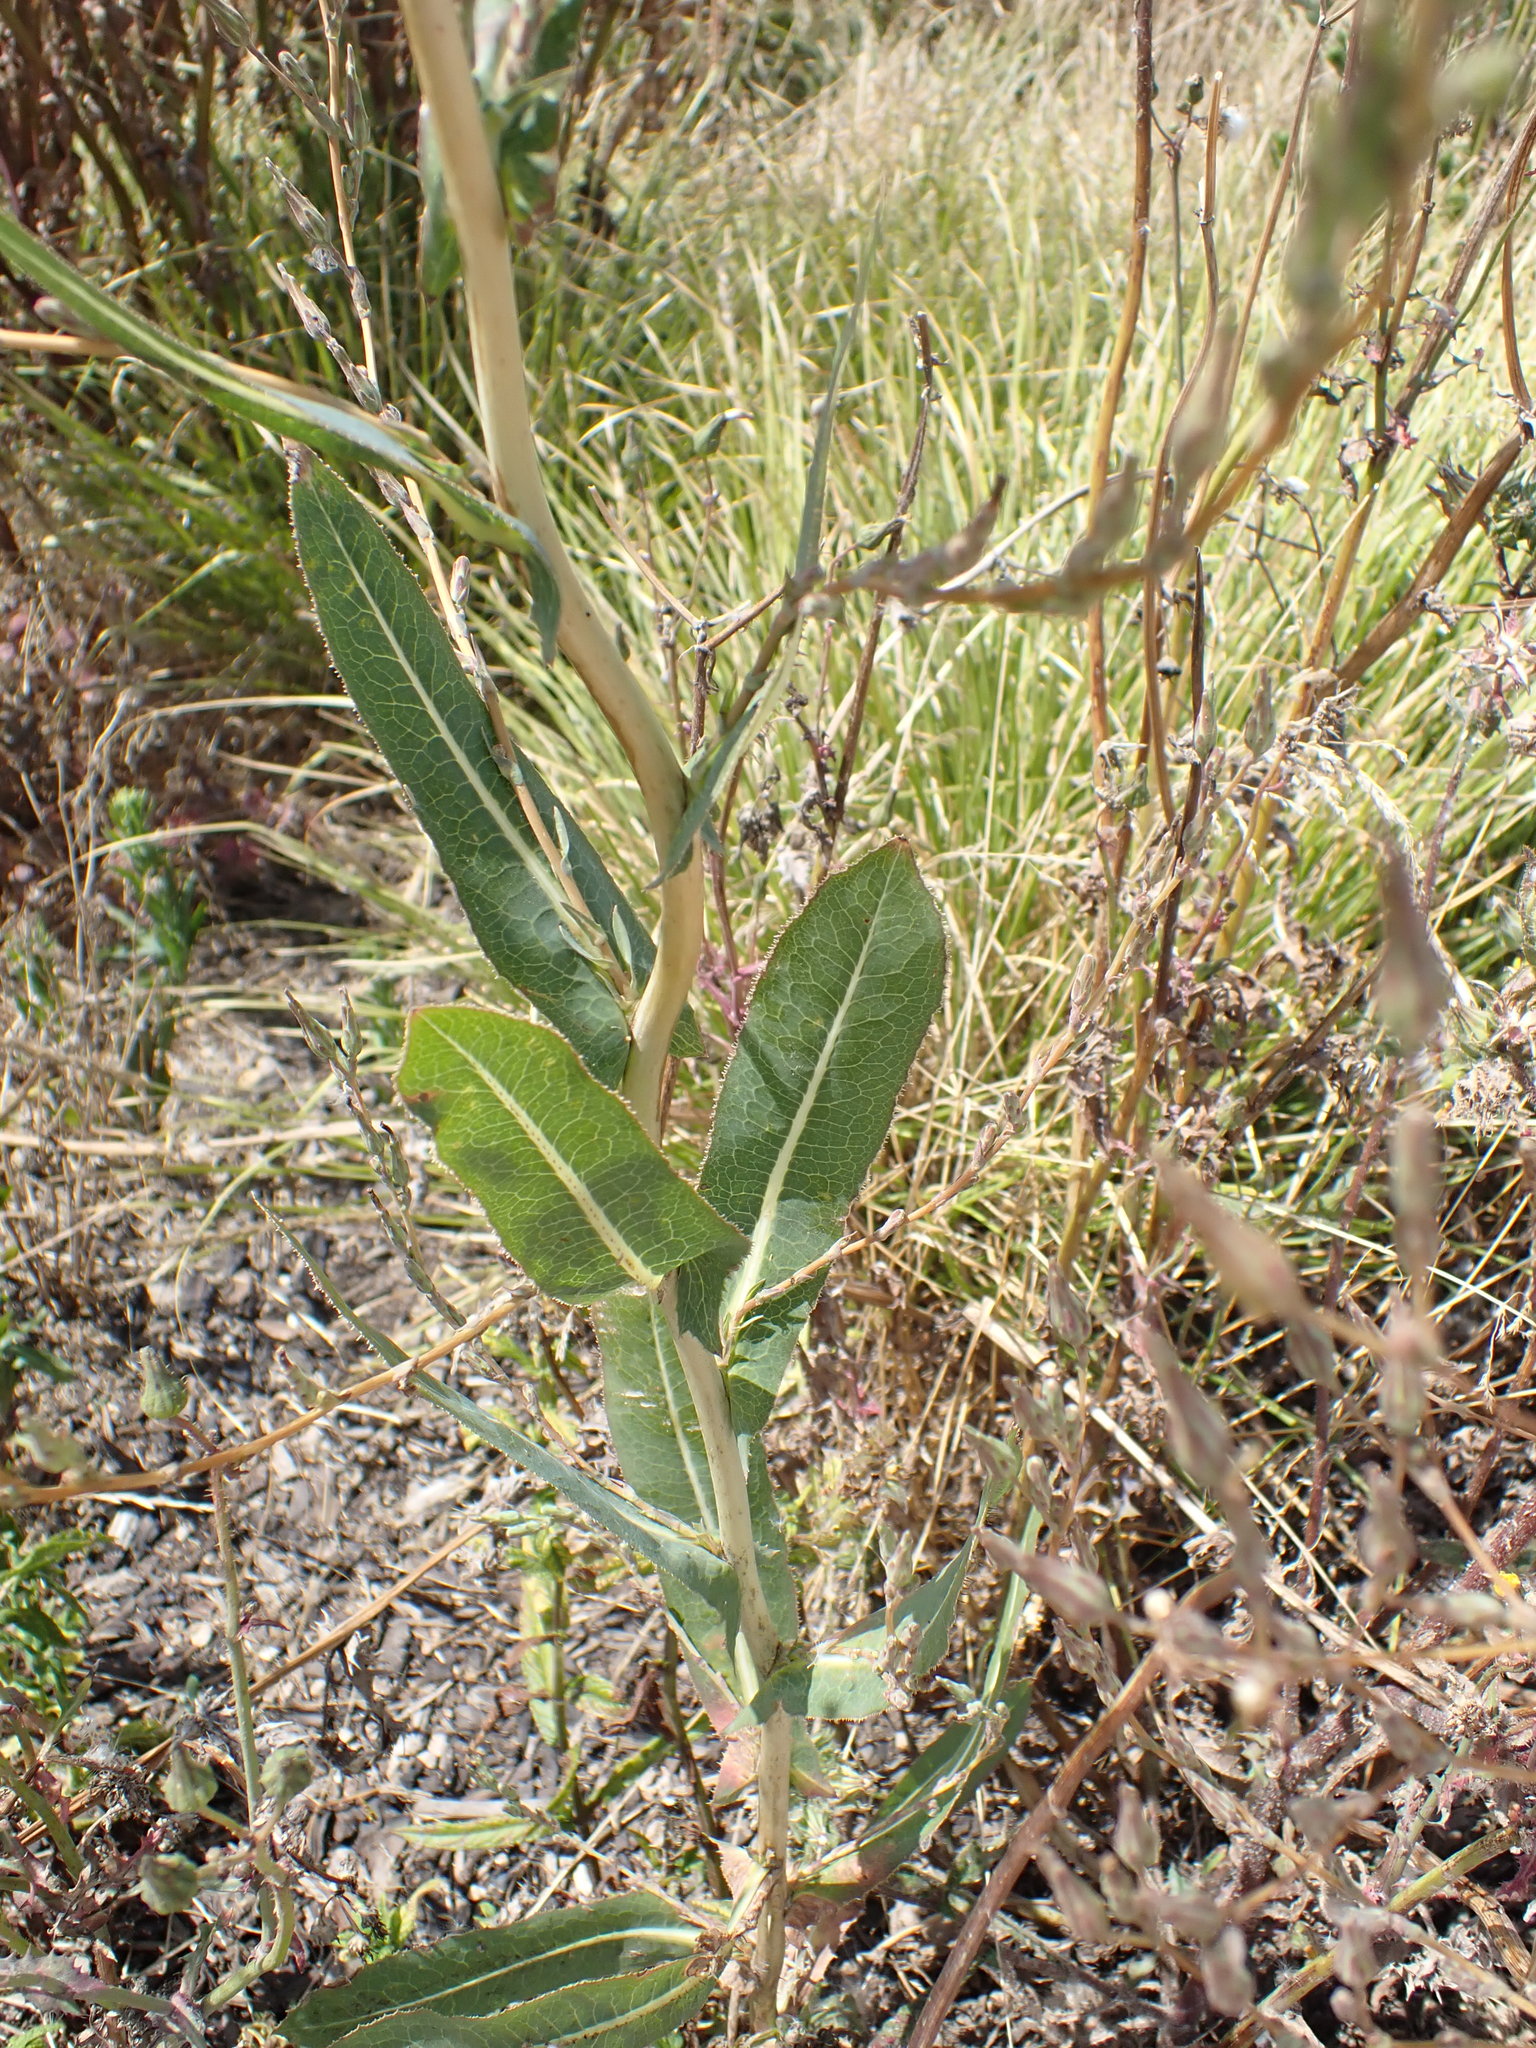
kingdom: Plantae
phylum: Tracheophyta
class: Magnoliopsida
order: Asterales
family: Asteraceae
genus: Lactuca
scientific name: Lactuca serriola
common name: Prickly lettuce
